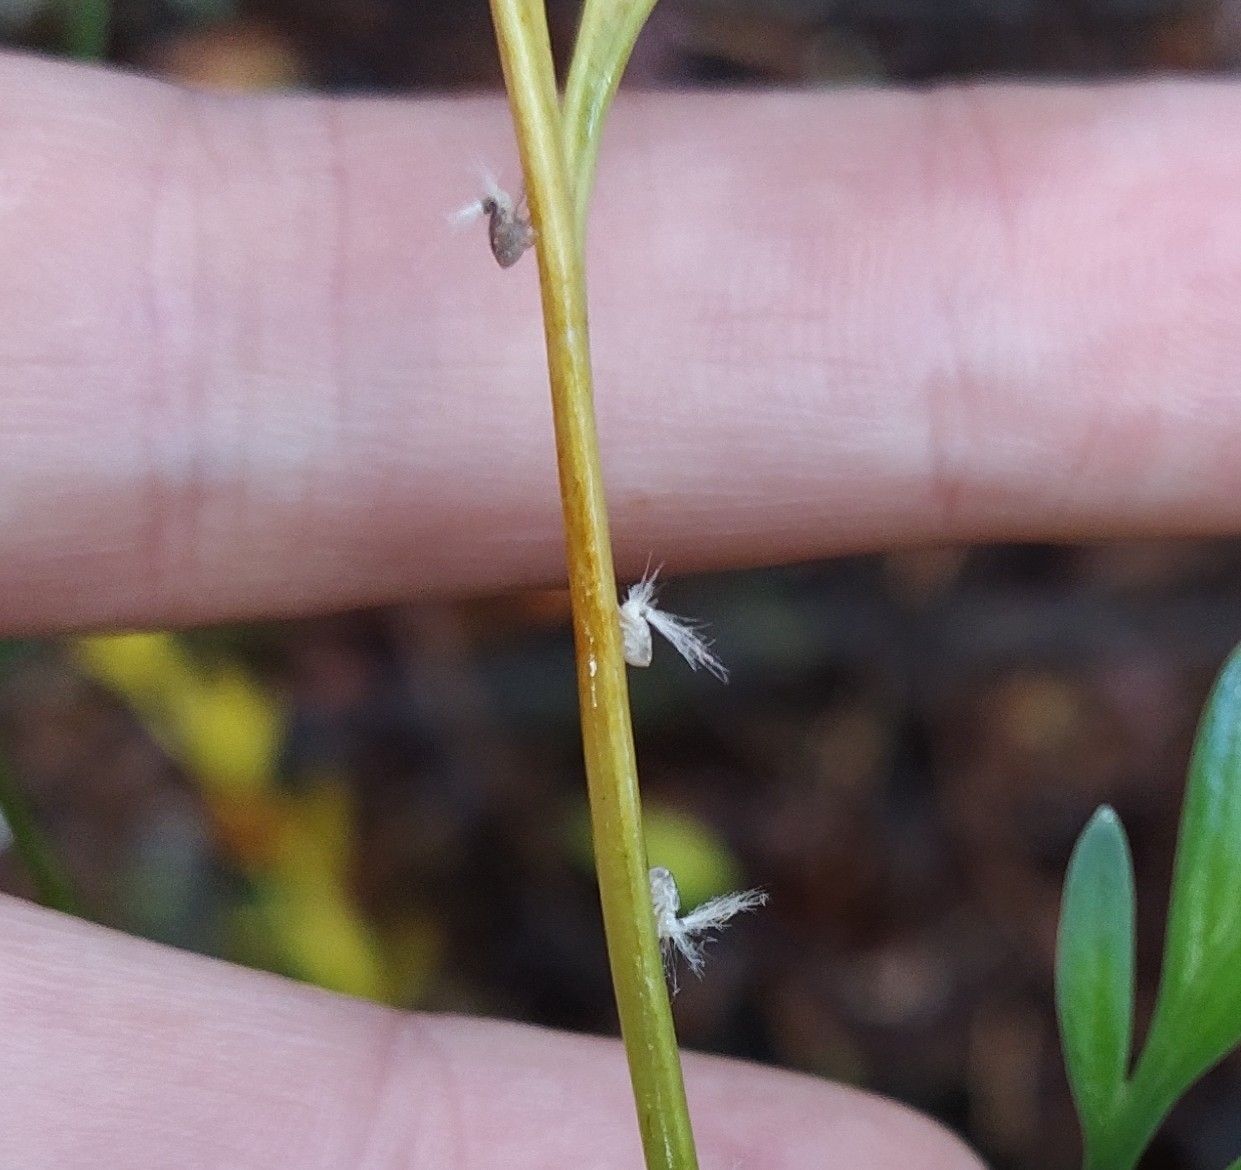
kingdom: Animalia
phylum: Arthropoda
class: Insecta
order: Hemiptera
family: Ricaniidae
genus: Scolypopa
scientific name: Scolypopa australis
